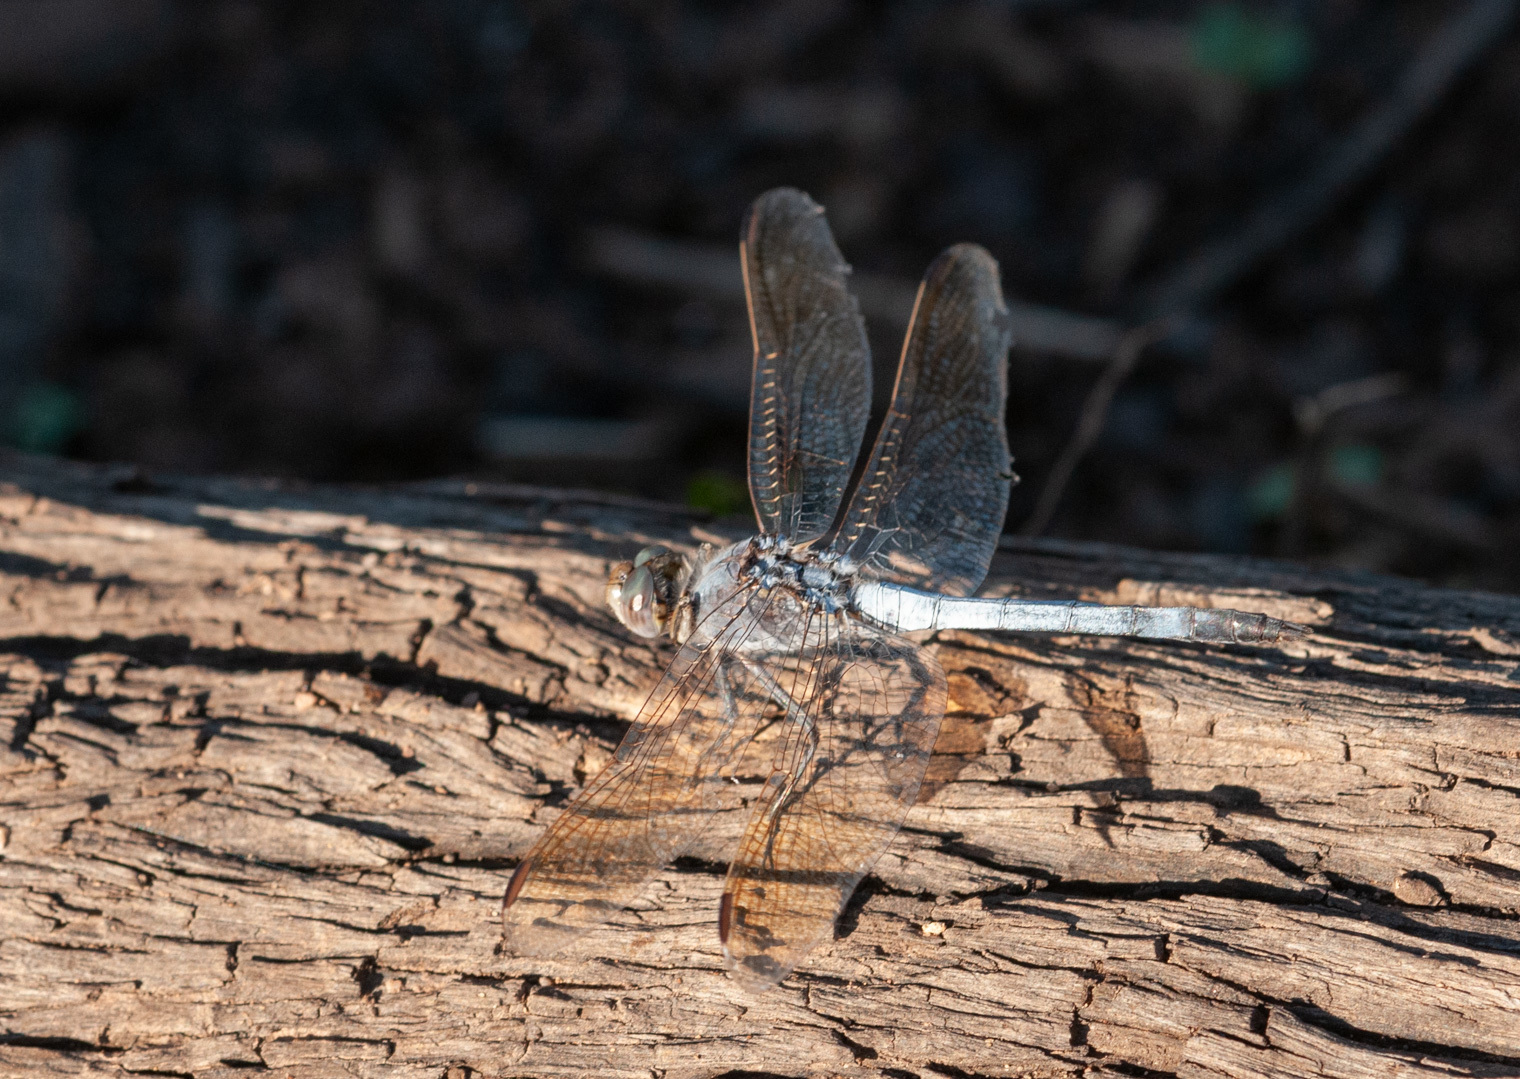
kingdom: Animalia
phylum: Arthropoda
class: Insecta
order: Odonata
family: Libellulidae
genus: Orthetrum
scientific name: Orthetrum caledonicum
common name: Blue skimmer
